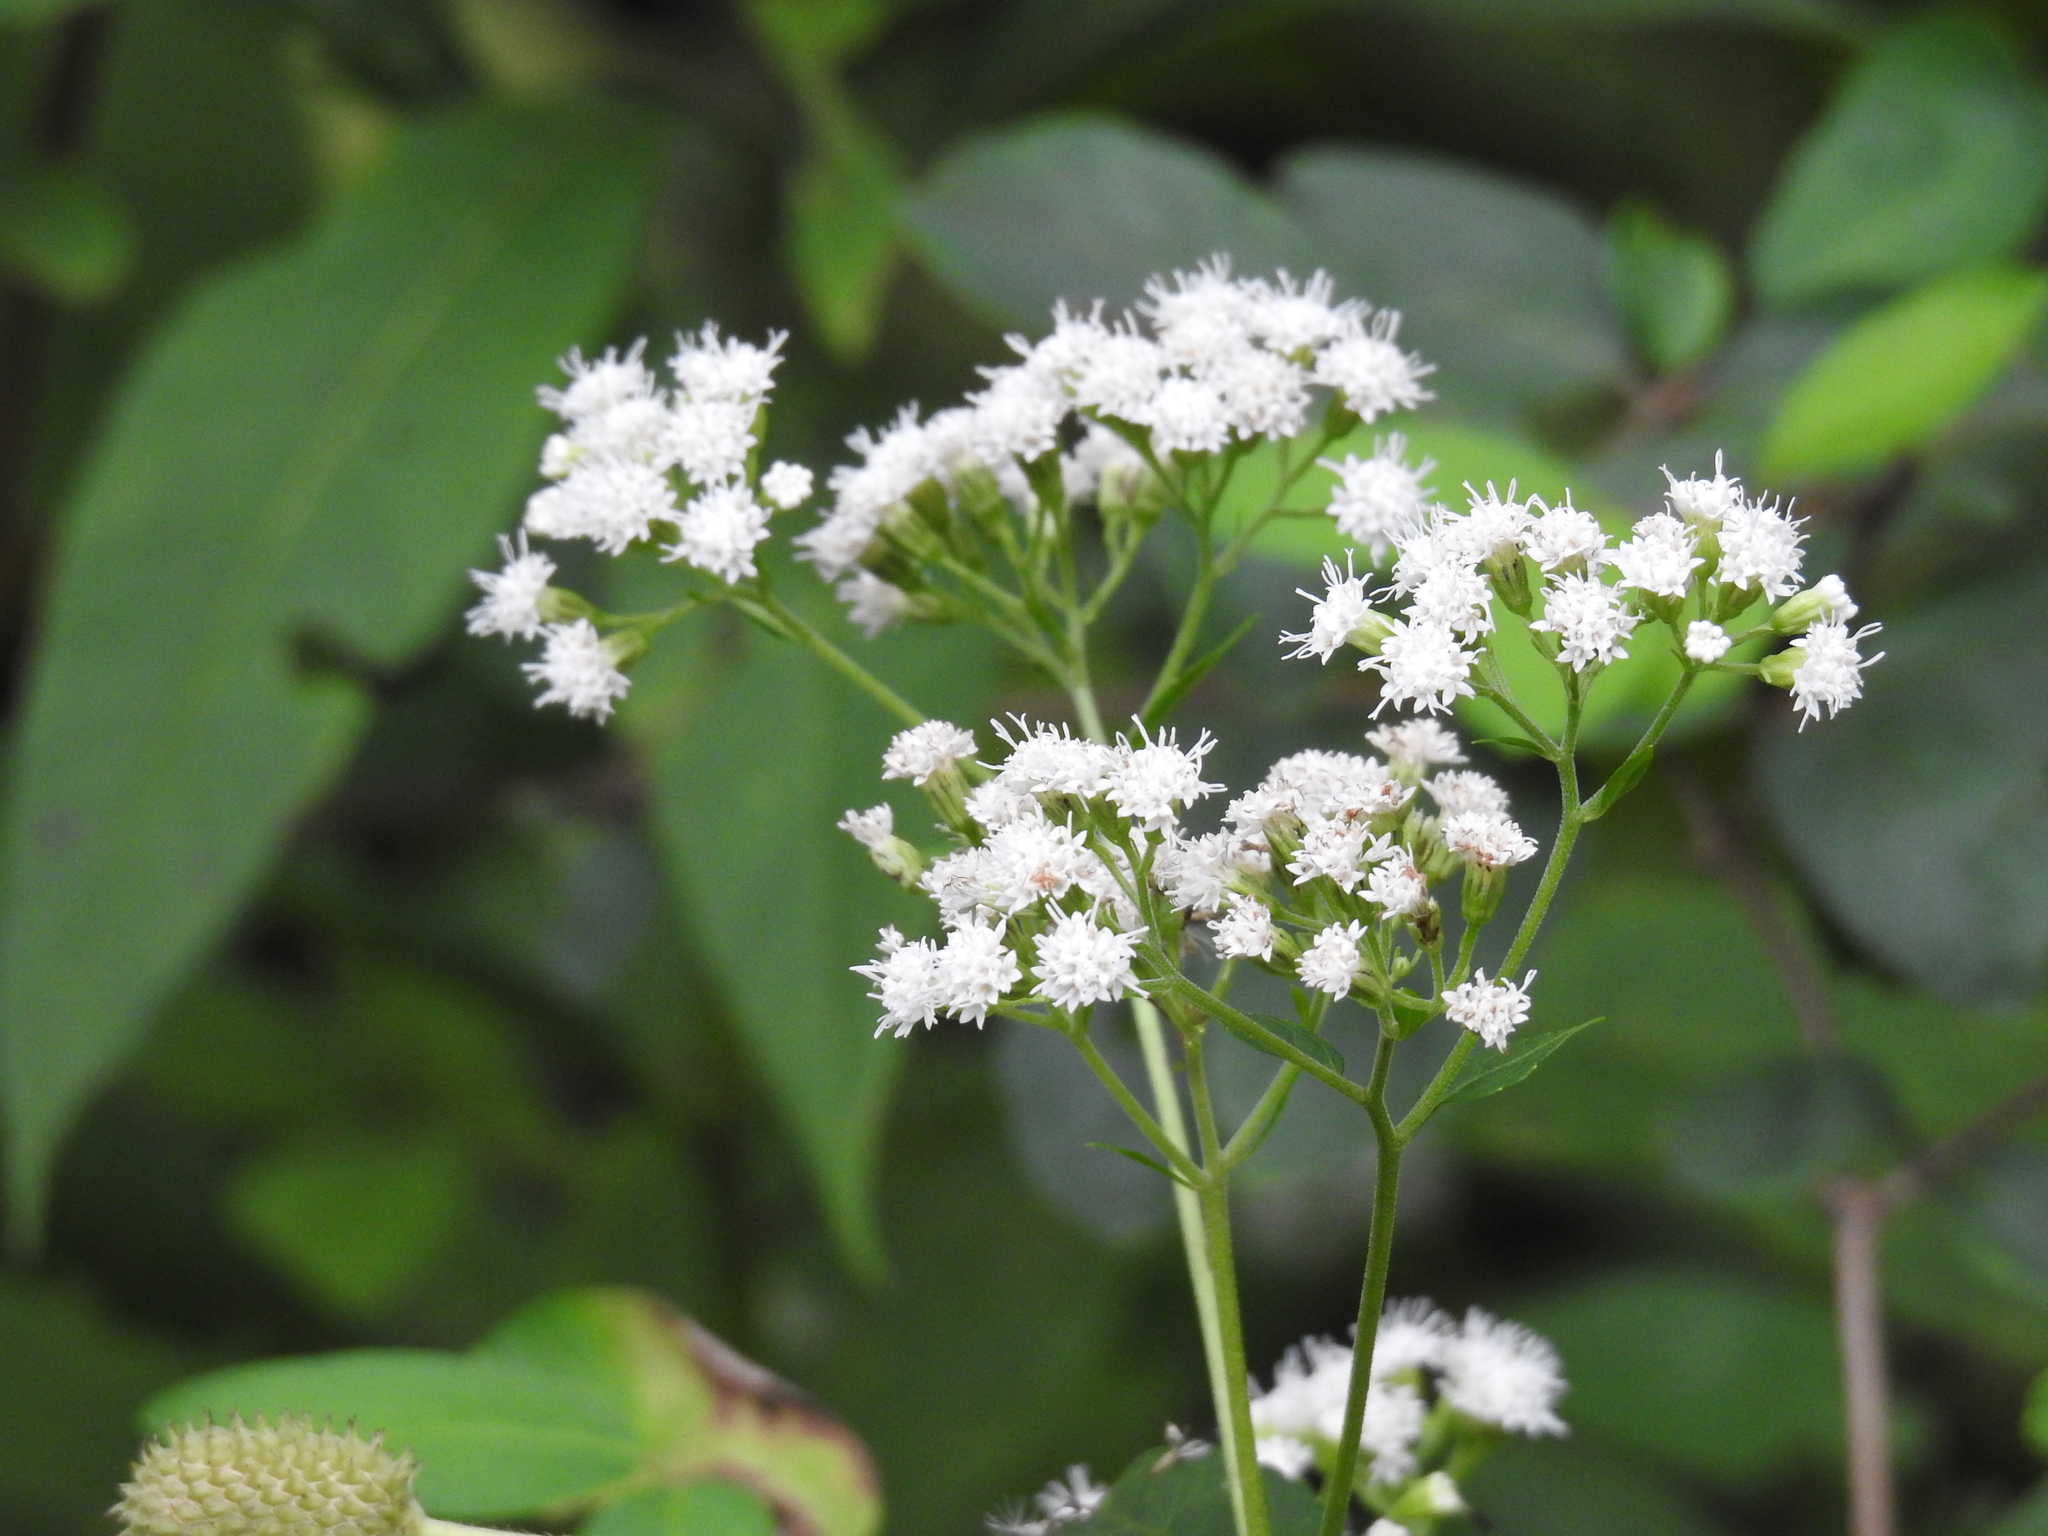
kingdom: Plantae
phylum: Tracheophyta
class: Magnoliopsida
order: Asterales
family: Asteraceae
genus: Ageratina
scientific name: Ageratina altissima
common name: White snakeroot
